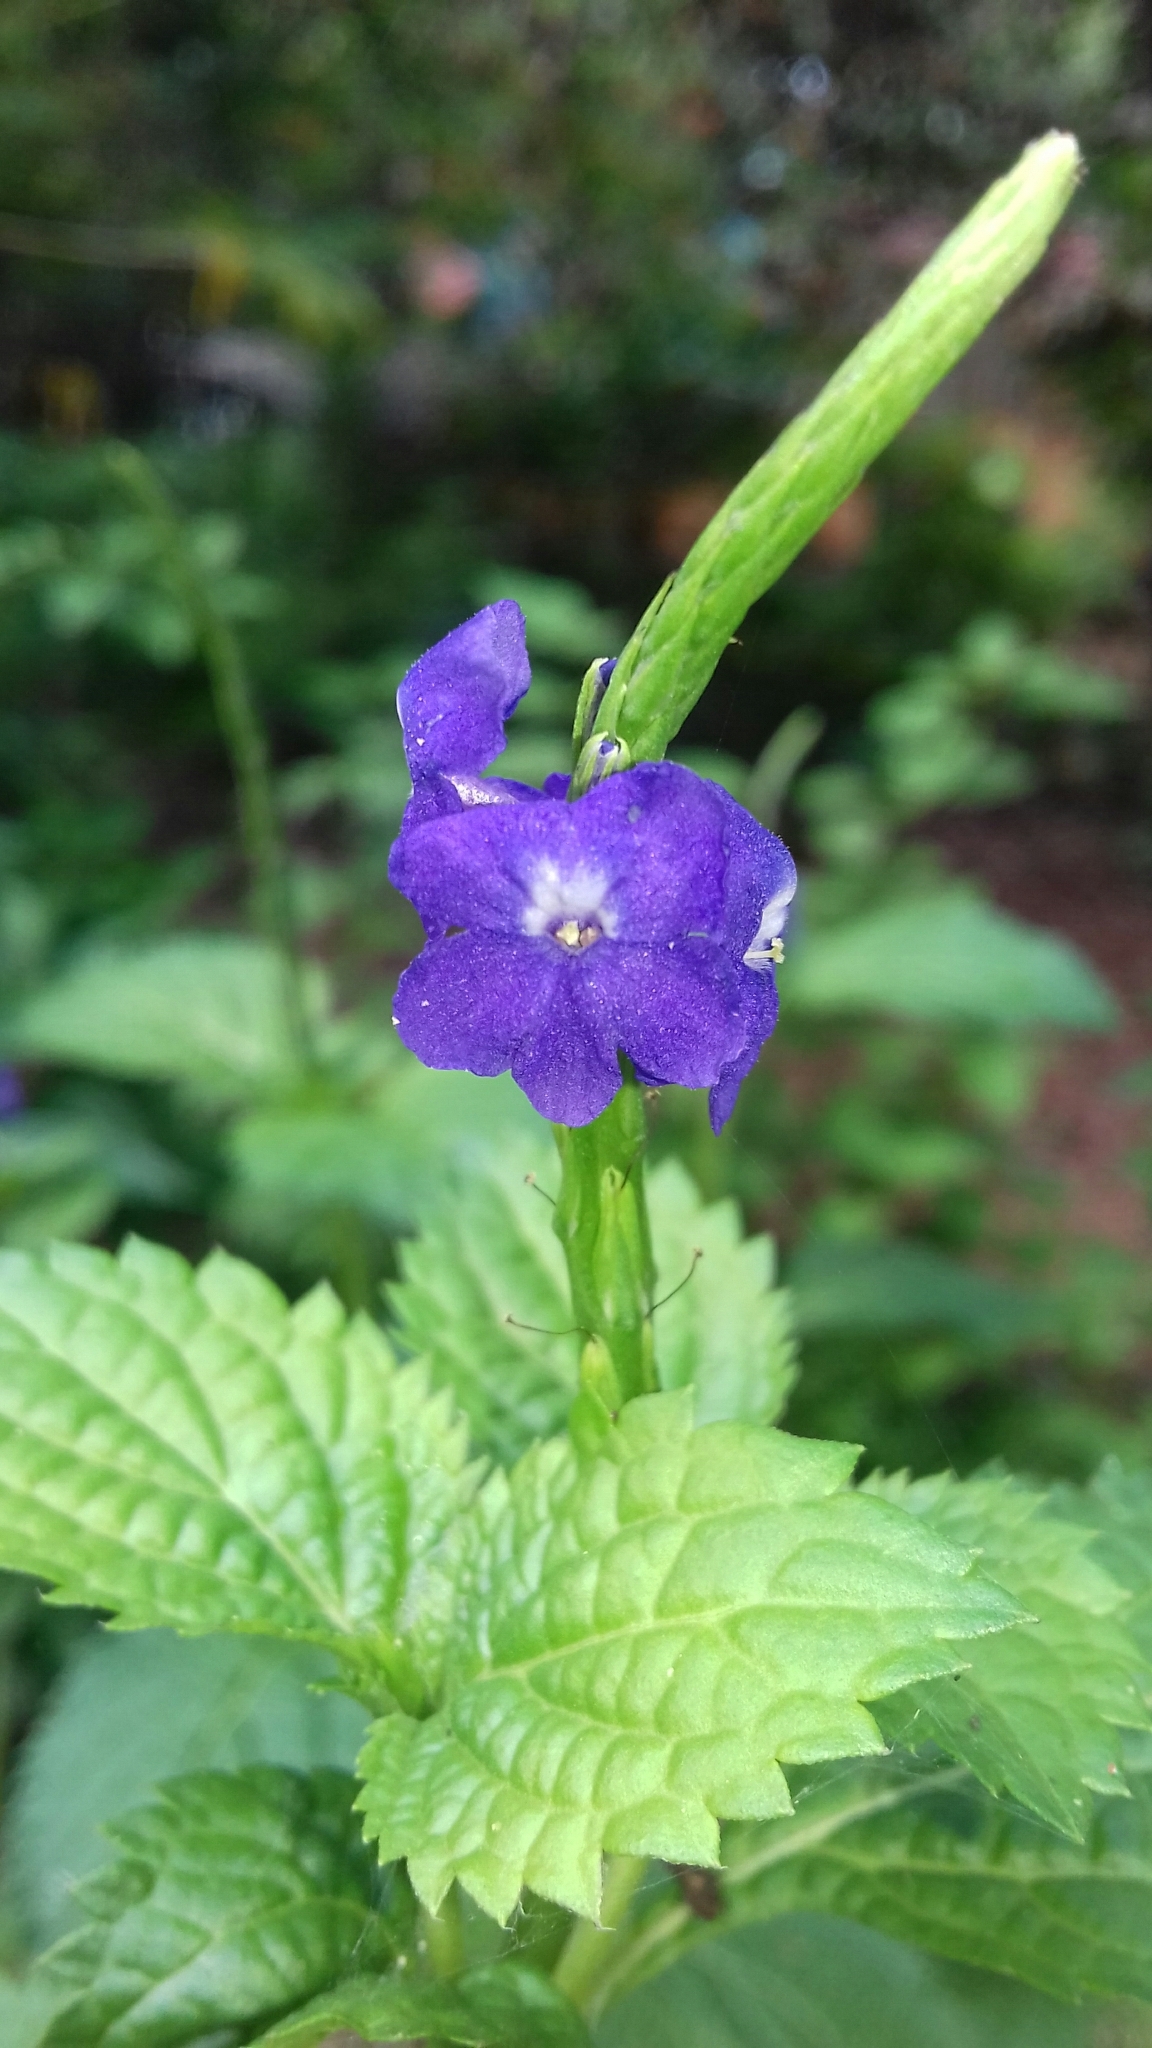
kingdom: Plantae
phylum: Tracheophyta
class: Magnoliopsida
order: Lamiales
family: Verbenaceae
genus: Stachytarpheta
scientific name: Stachytarpheta jamaicensis
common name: Light-blue snakeweed
